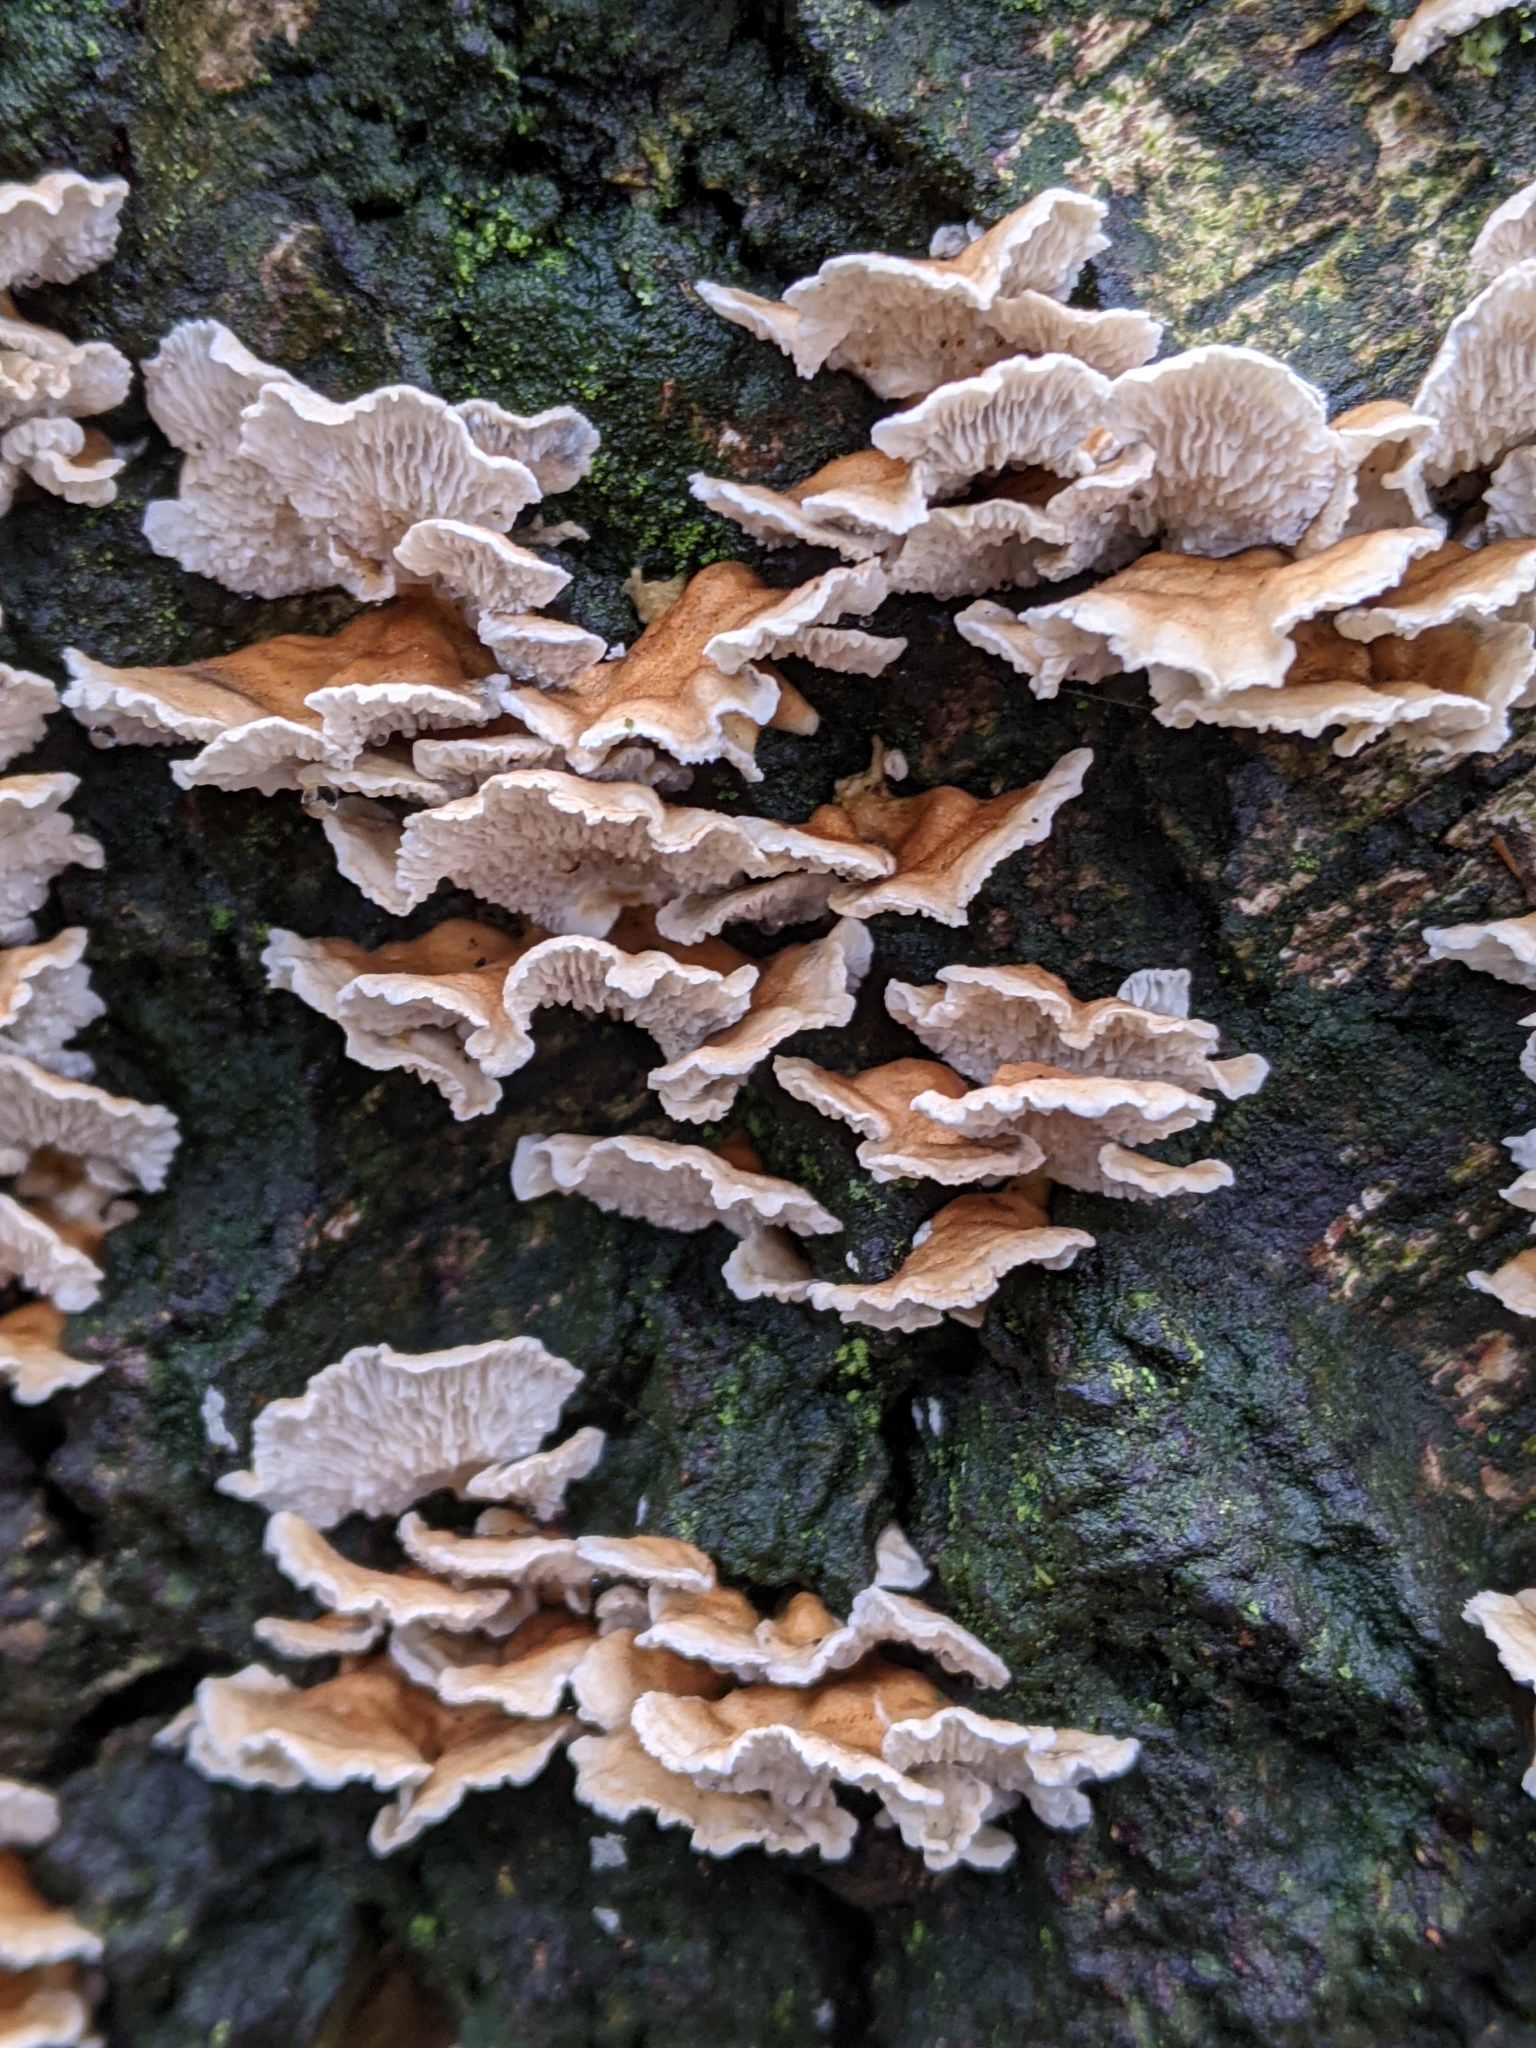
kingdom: Fungi
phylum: Basidiomycota
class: Agaricomycetes
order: Amylocorticiales
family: Amylocorticiaceae
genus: Plicaturopsis
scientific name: Plicaturopsis crispa
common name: Crimped gill
